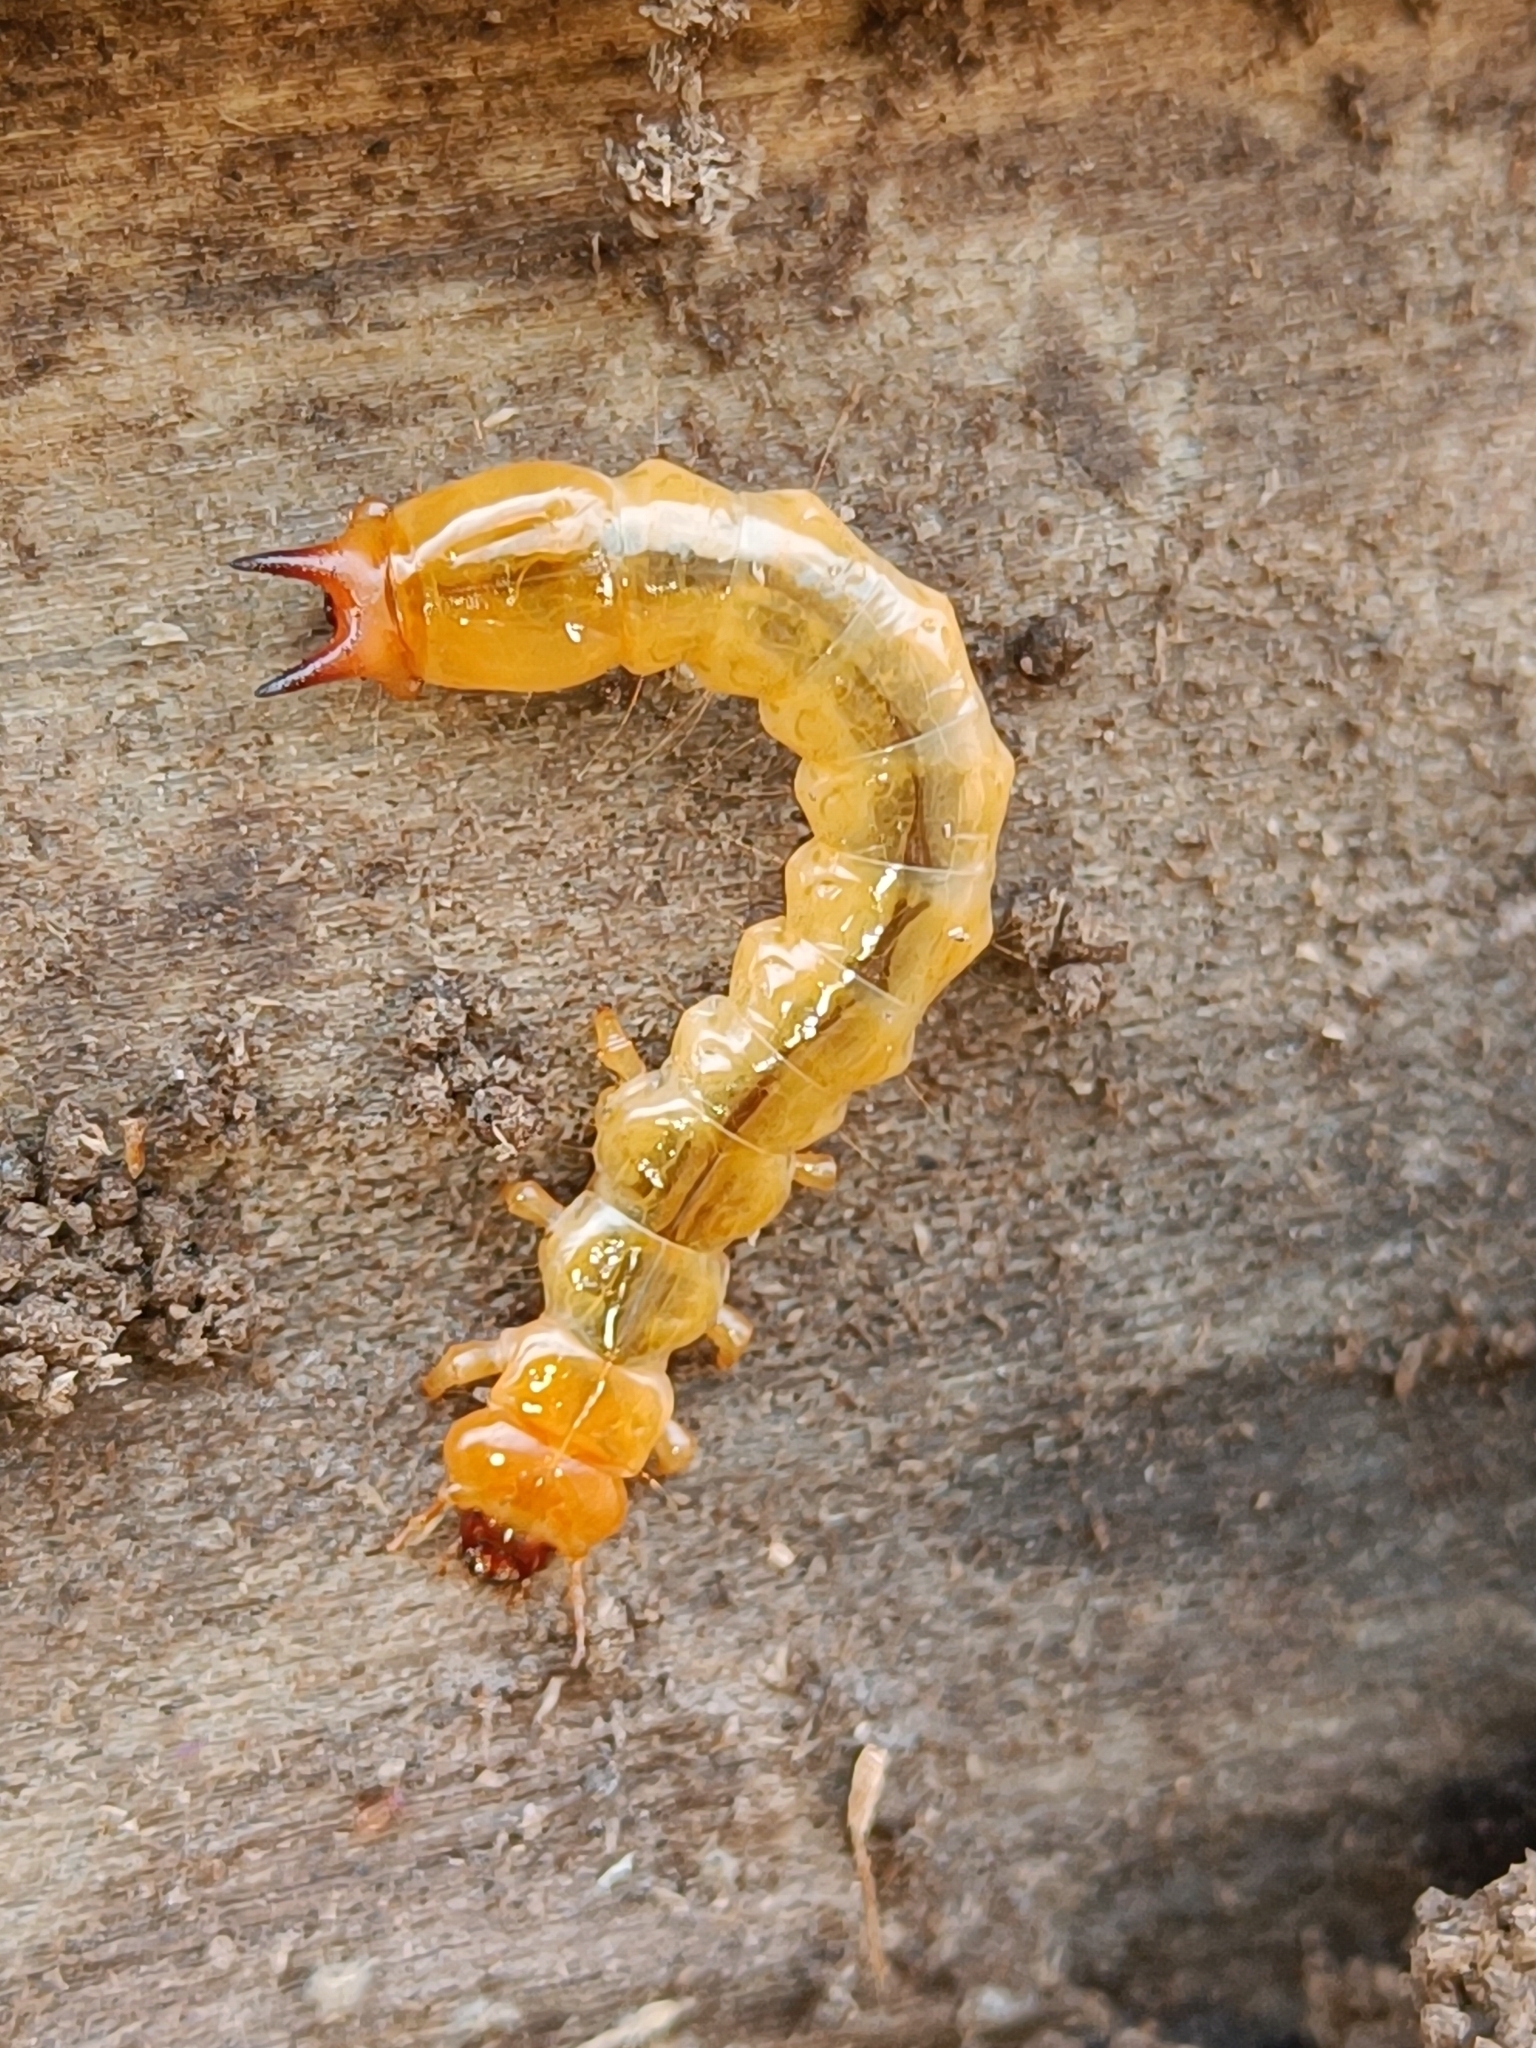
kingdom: Animalia
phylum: Arthropoda
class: Insecta
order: Coleoptera
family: Pyrochroidae
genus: Pyrochroa
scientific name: Pyrochroa coccinea
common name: Black-headed cardinal beetle
